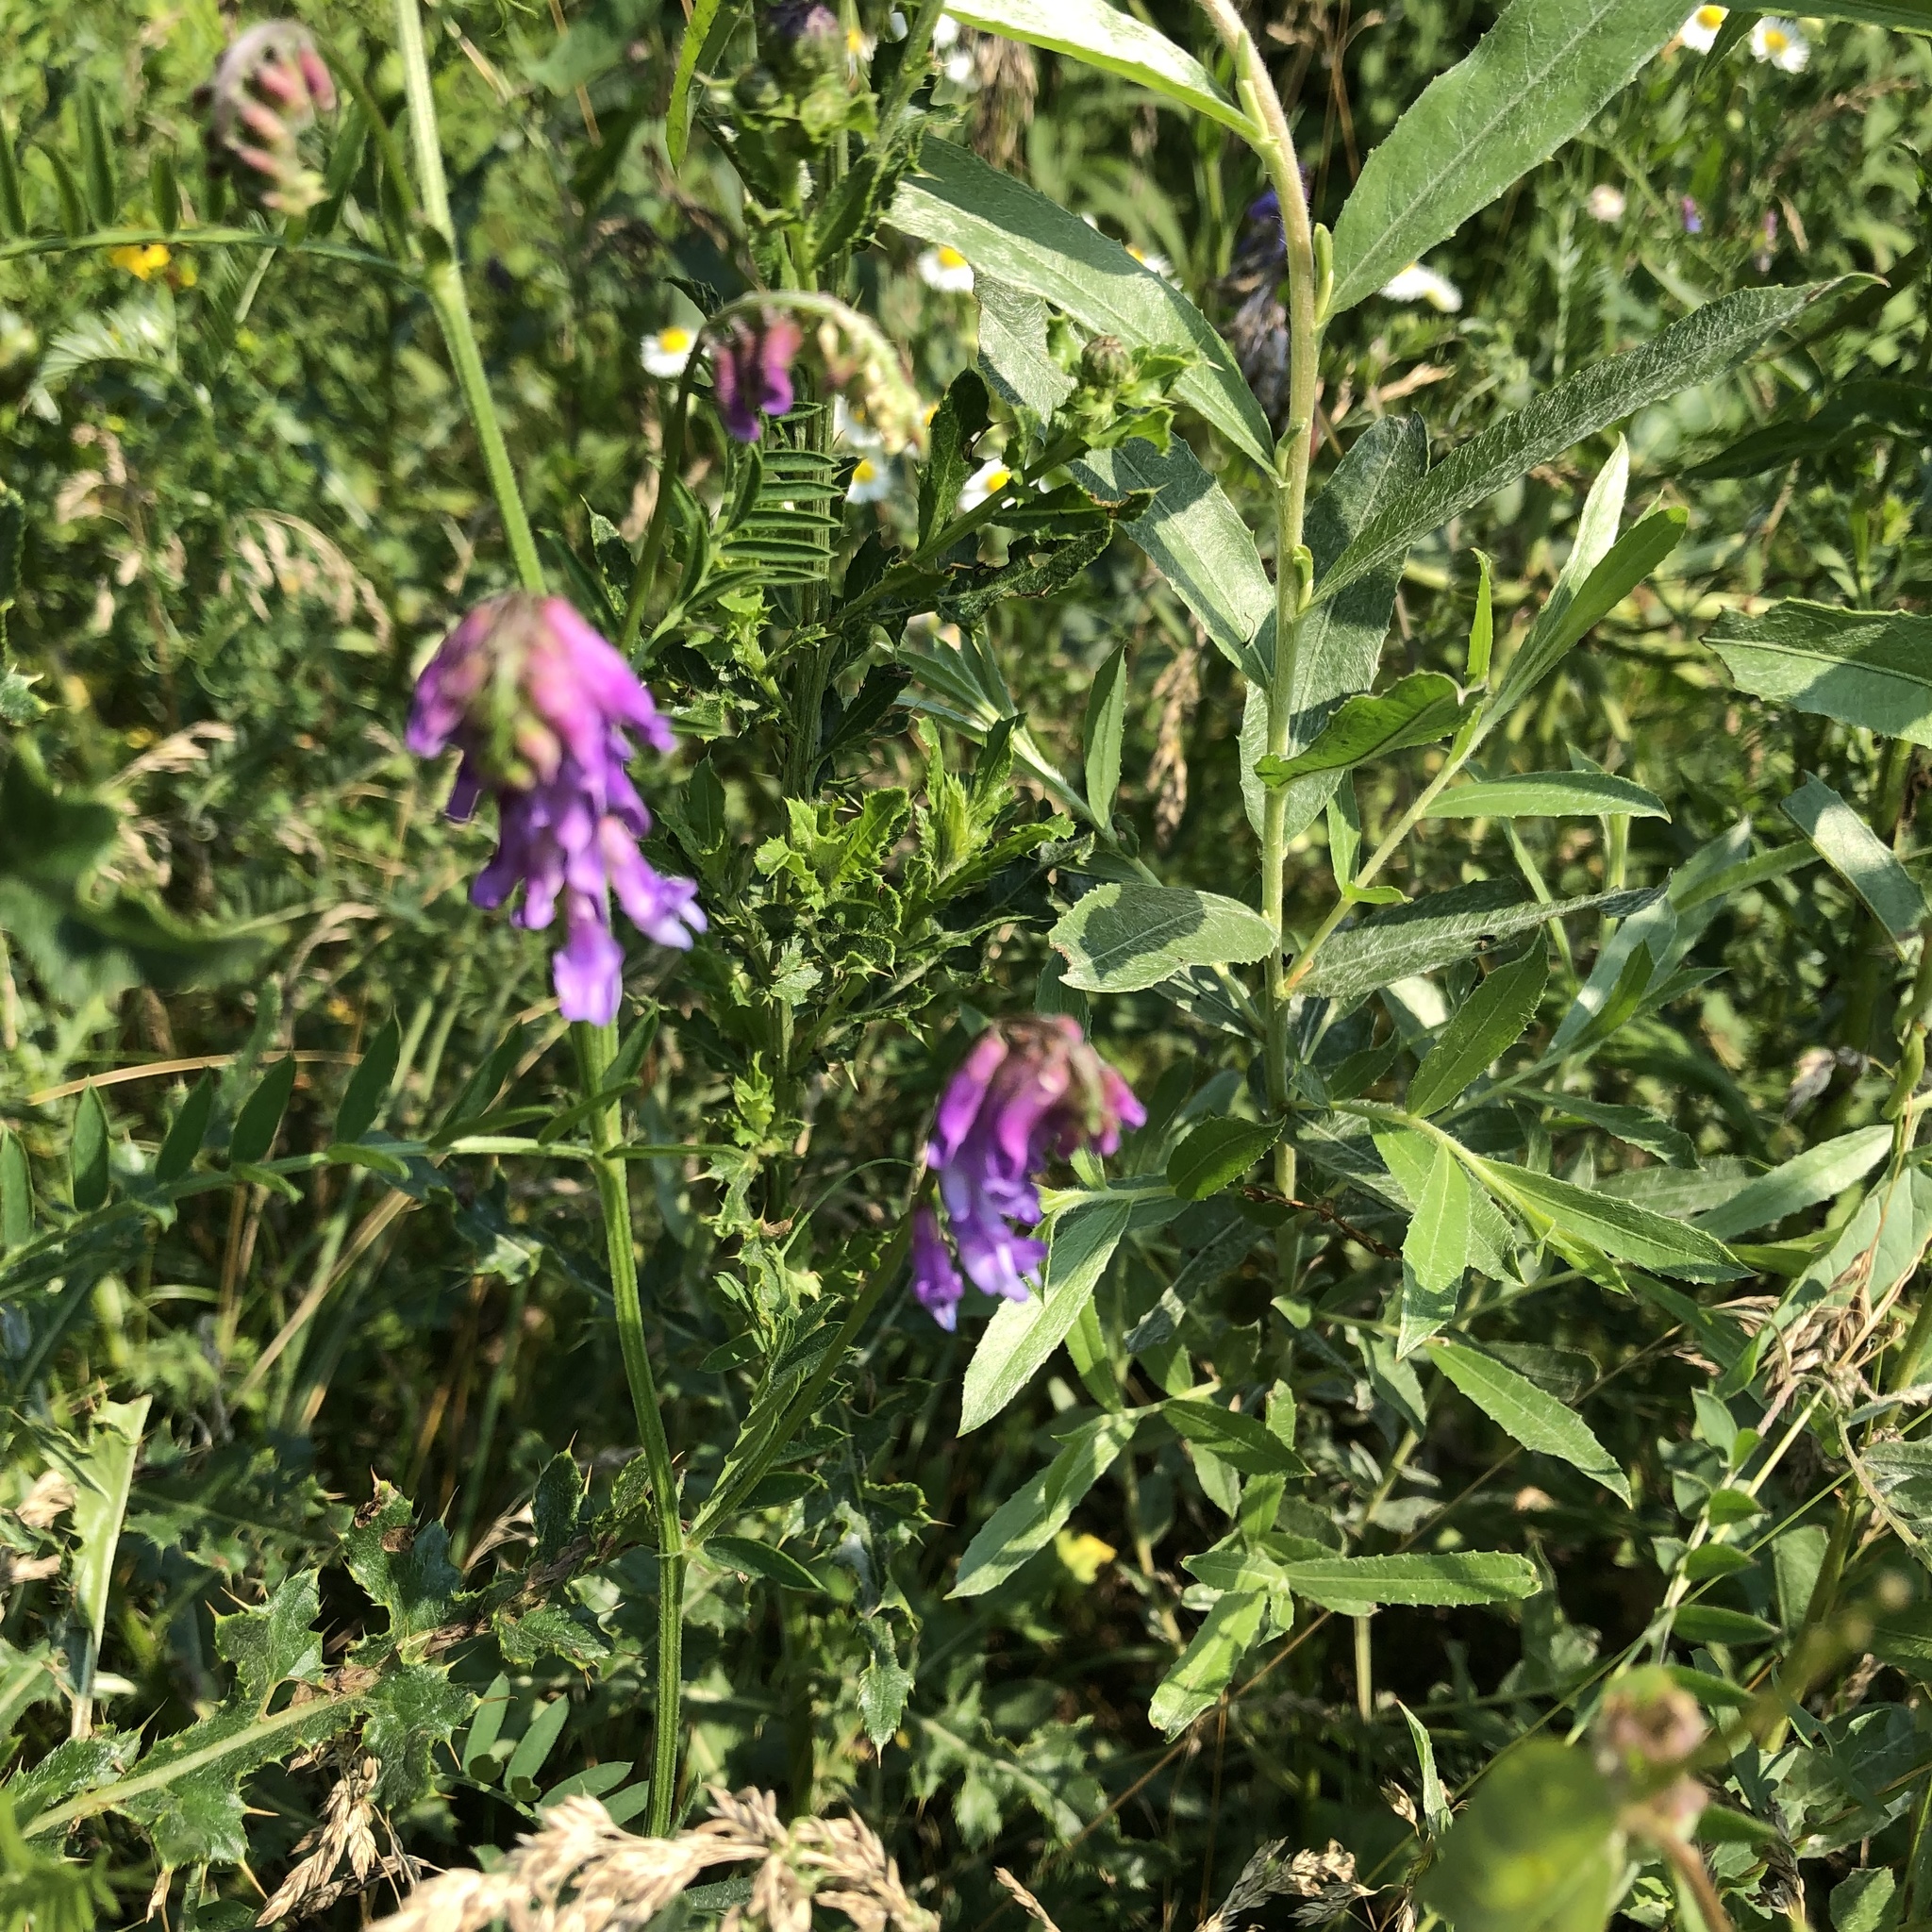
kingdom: Plantae
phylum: Tracheophyta
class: Magnoliopsida
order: Fabales
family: Fabaceae
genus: Vicia
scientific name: Vicia cracca
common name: Bird vetch
